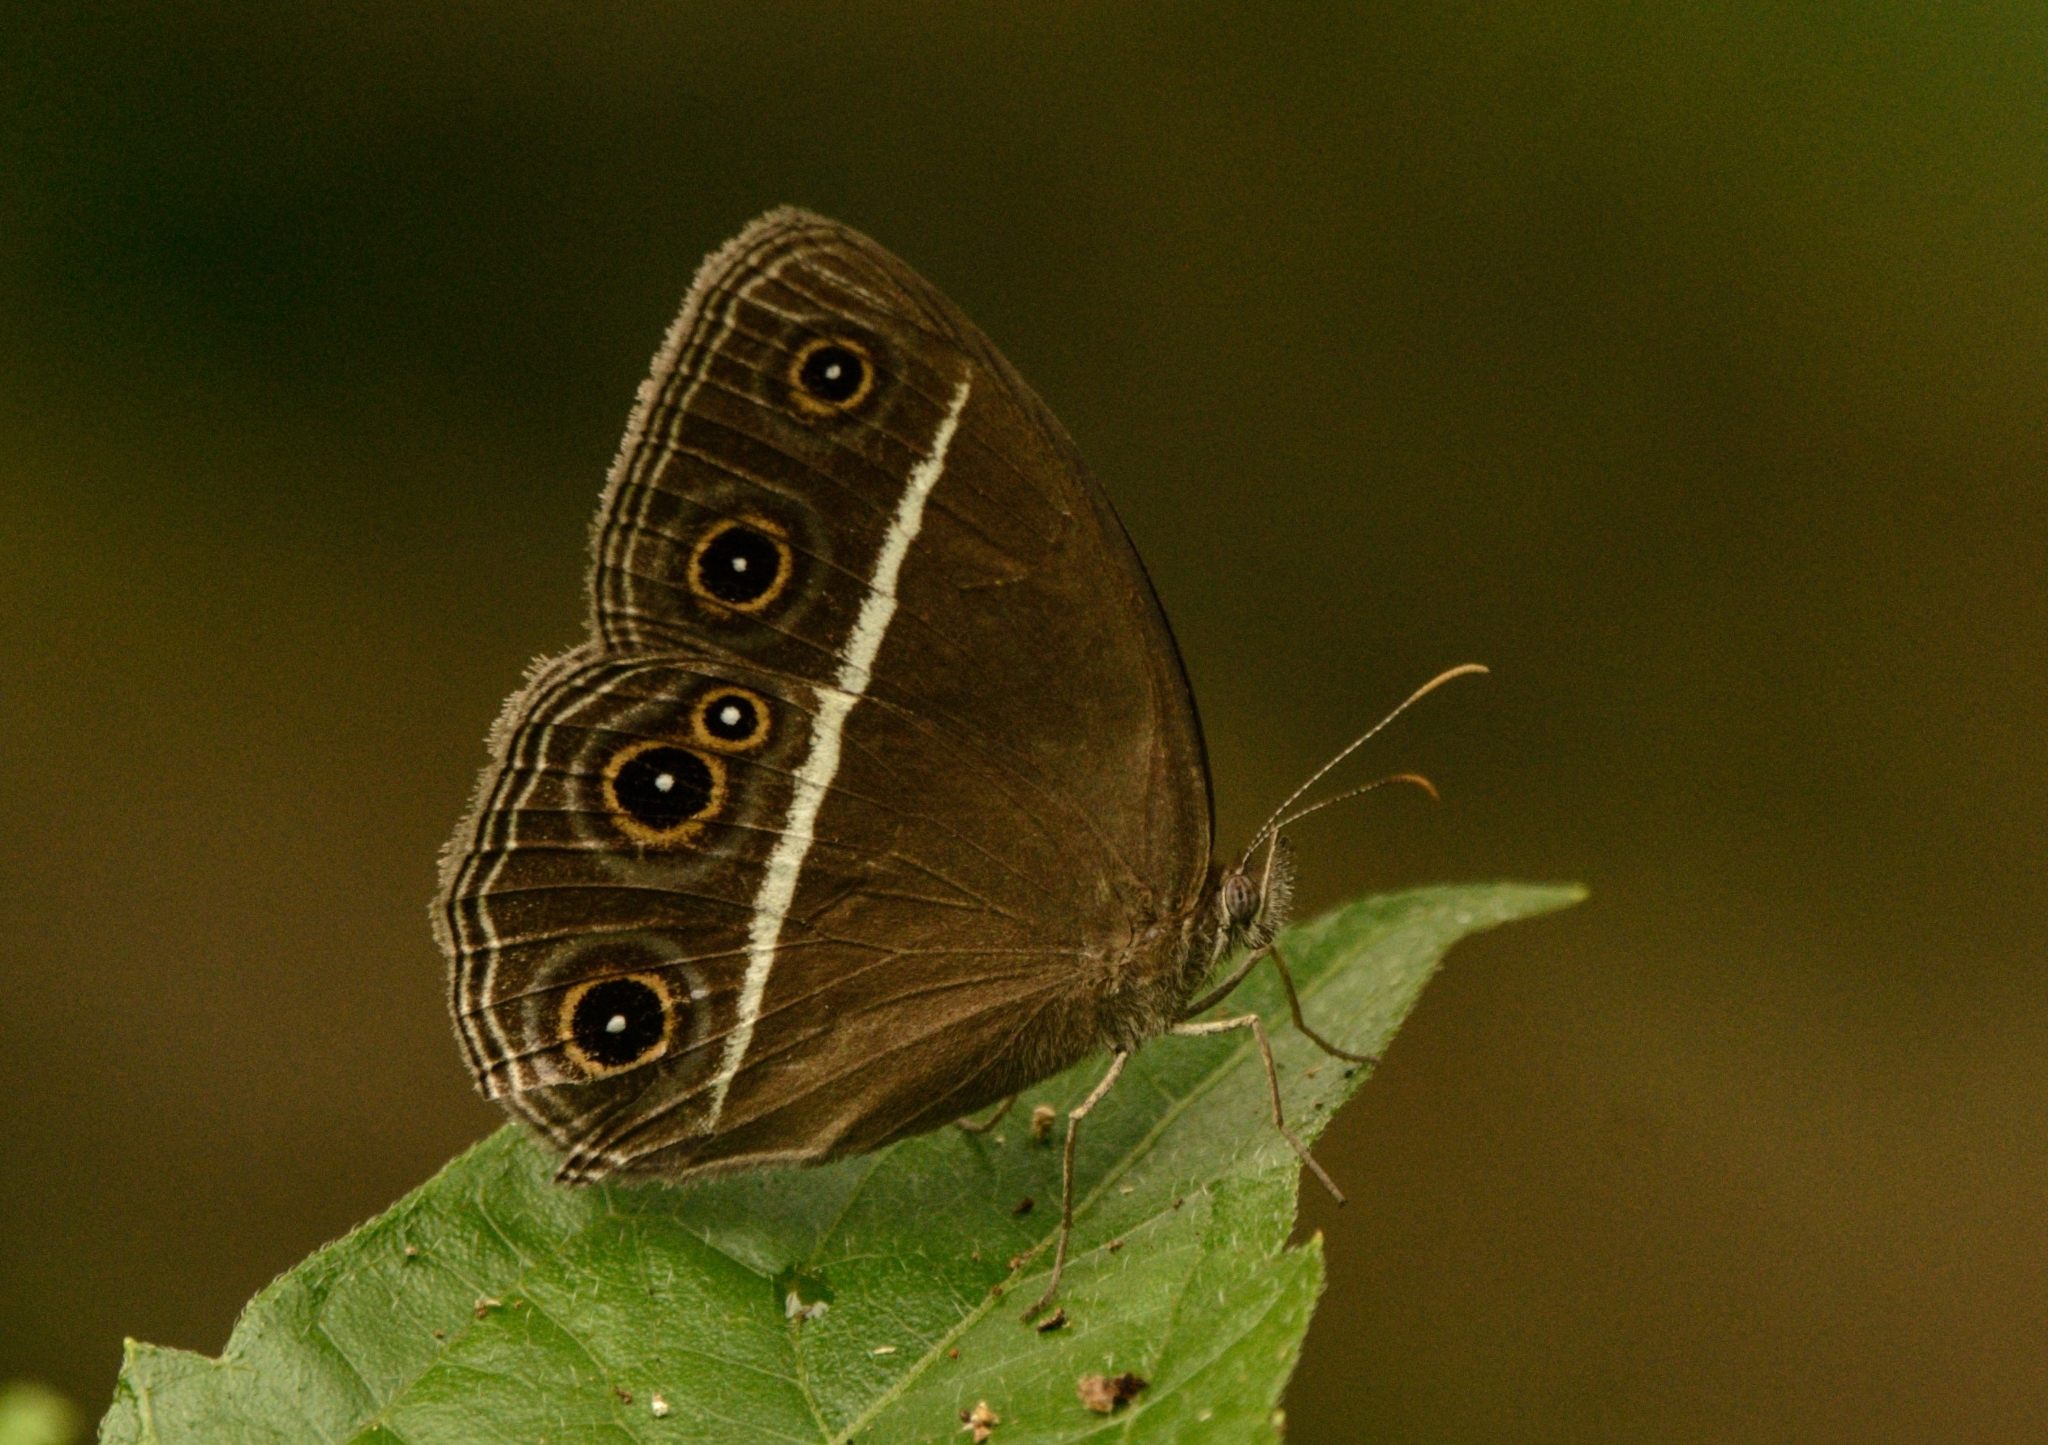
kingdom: Animalia
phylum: Arthropoda
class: Insecta
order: Lepidoptera
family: Nymphalidae
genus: Orsotriaena
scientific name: Orsotriaena medus
